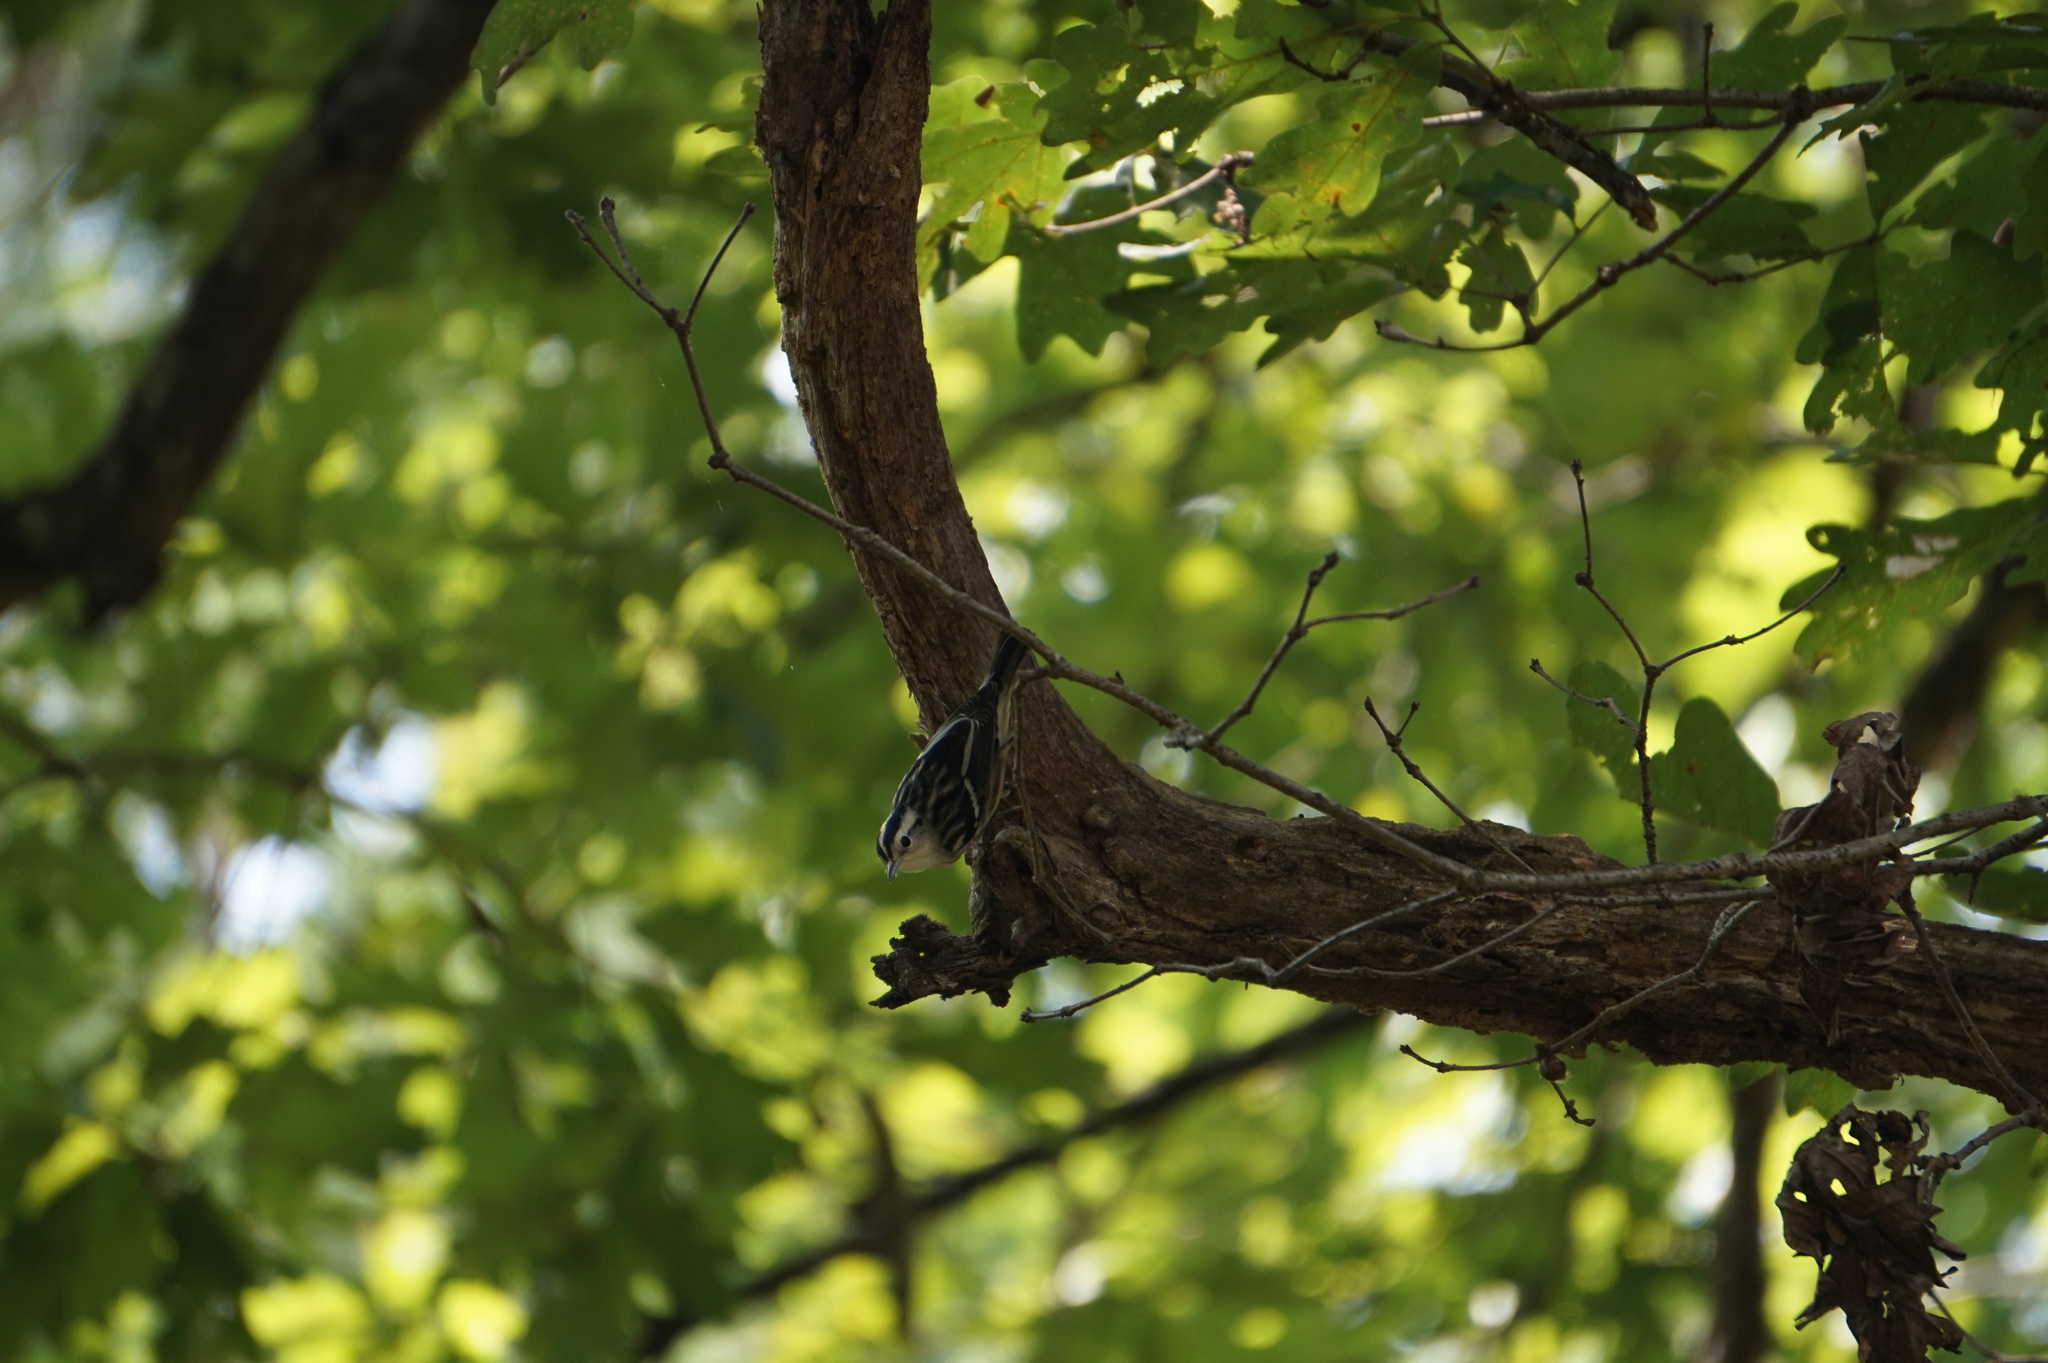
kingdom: Animalia
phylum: Chordata
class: Aves
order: Passeriformes
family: Parulidae
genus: Mniotilta
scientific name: Mniotilta varia
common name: Black-and-white warbler
